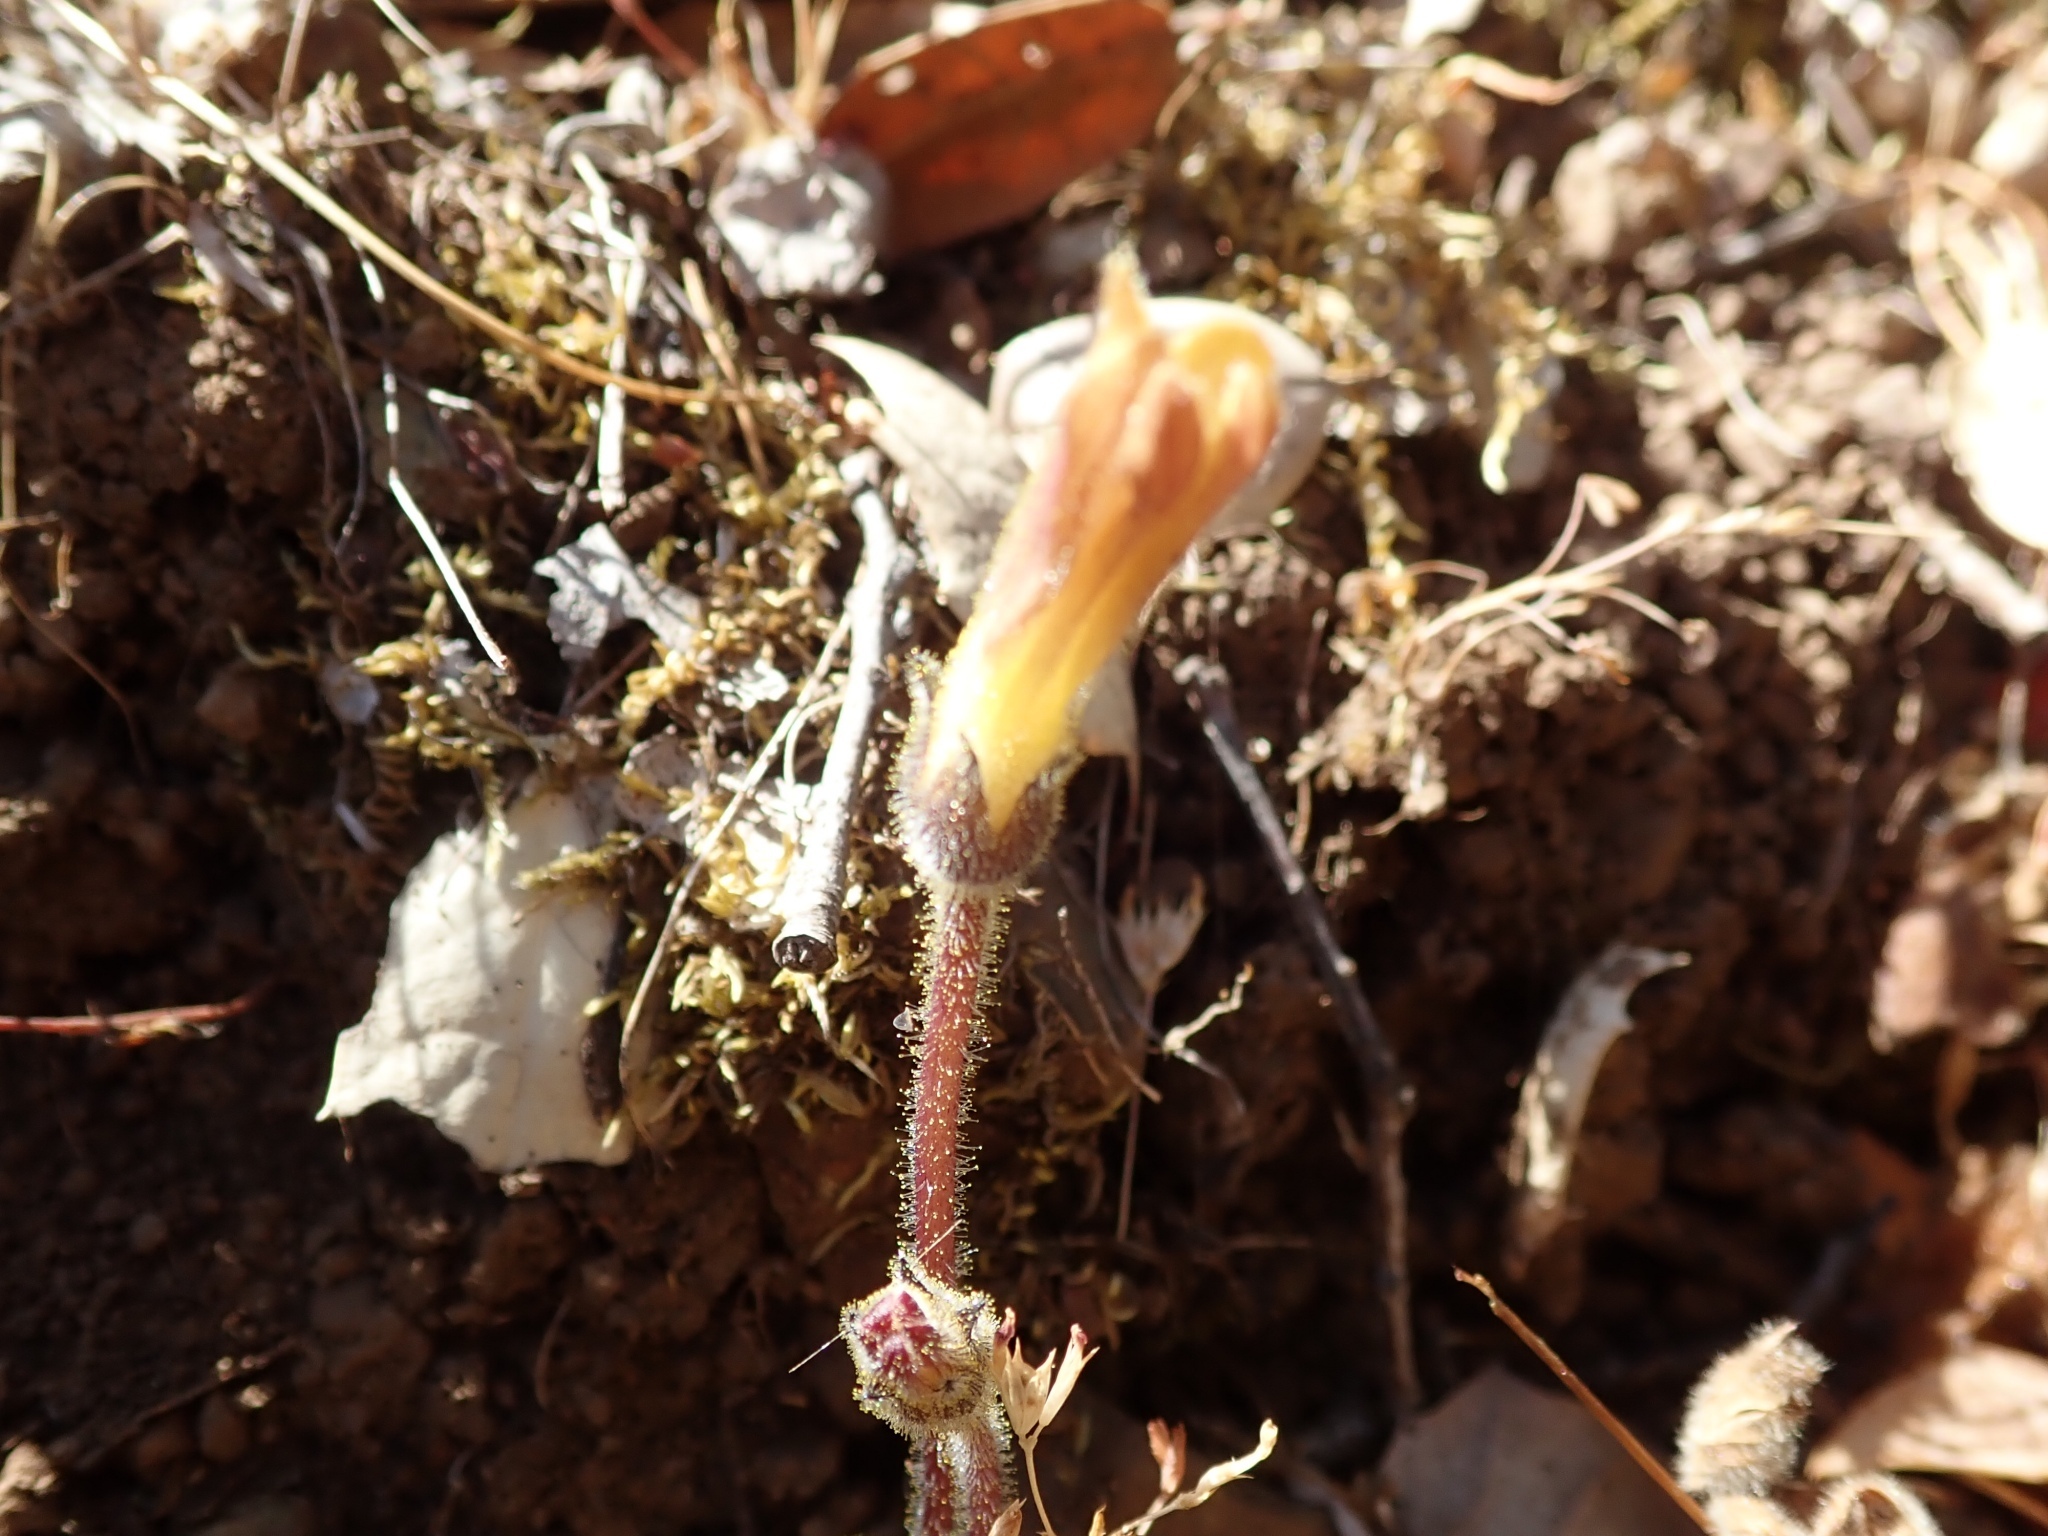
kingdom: Plantae
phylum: Tracheophyta
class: Magnoliopsida
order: Lamiales
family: Orobanchaceae
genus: Aphyllon
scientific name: Aphyllon franciscanum
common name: San francisco broomrape
